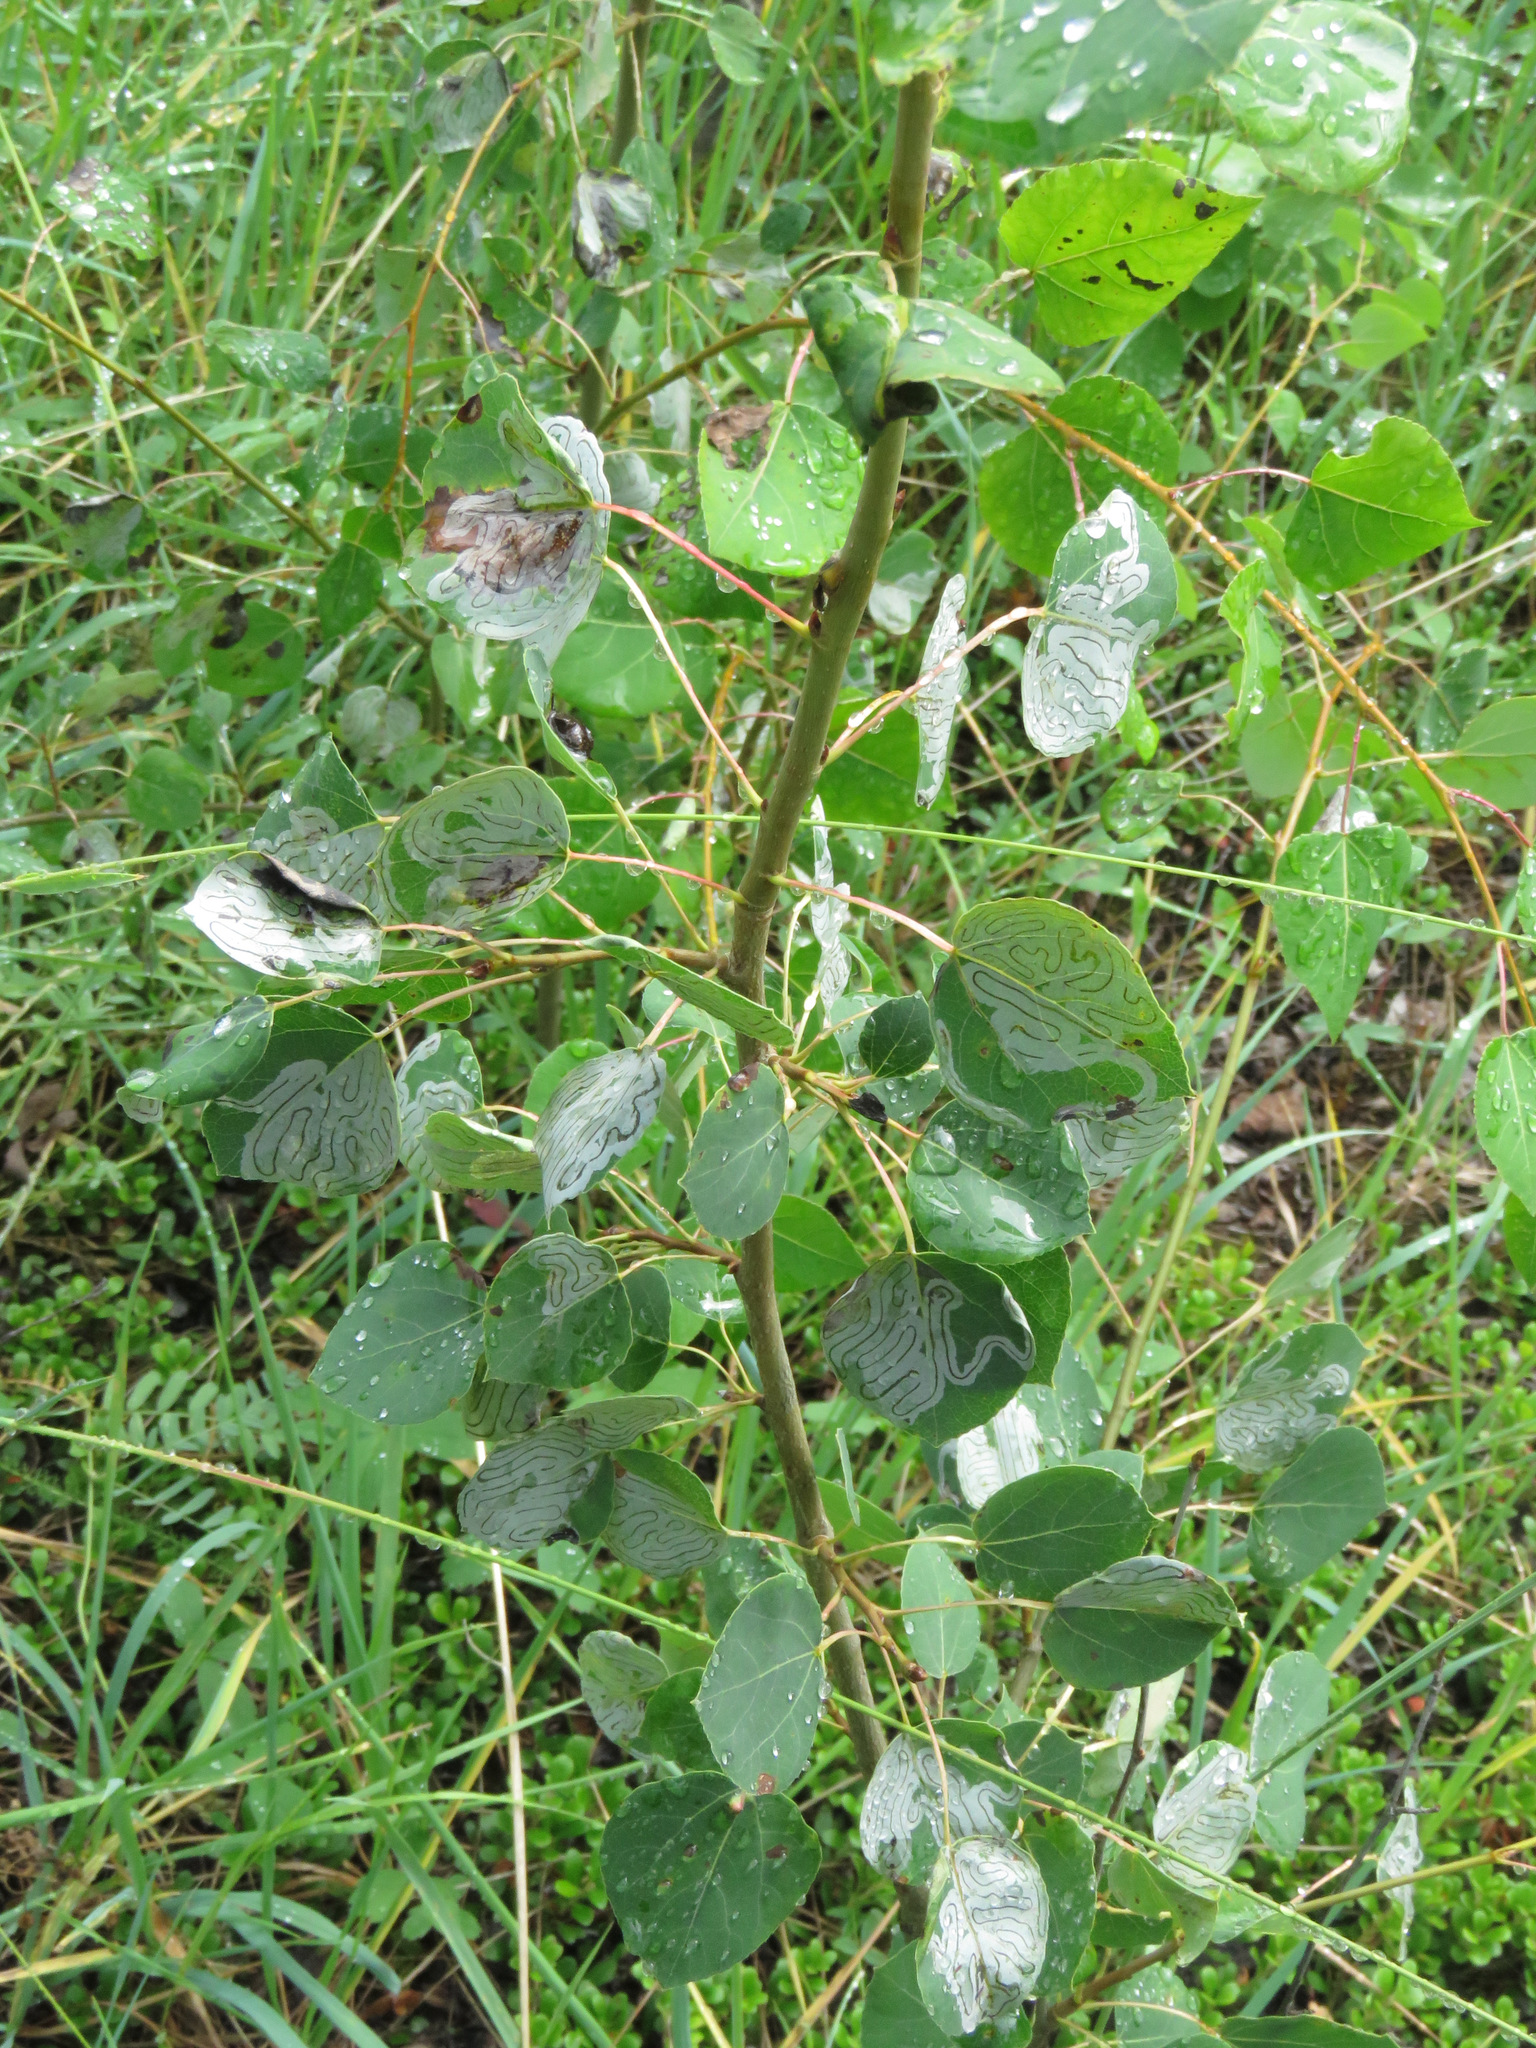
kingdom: Plantae
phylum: Tracheophyta
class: Magnoliopsida
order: Malpighiales
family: Salicaceae
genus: Populus
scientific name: Populus tremuloides
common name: Quaking aspen
